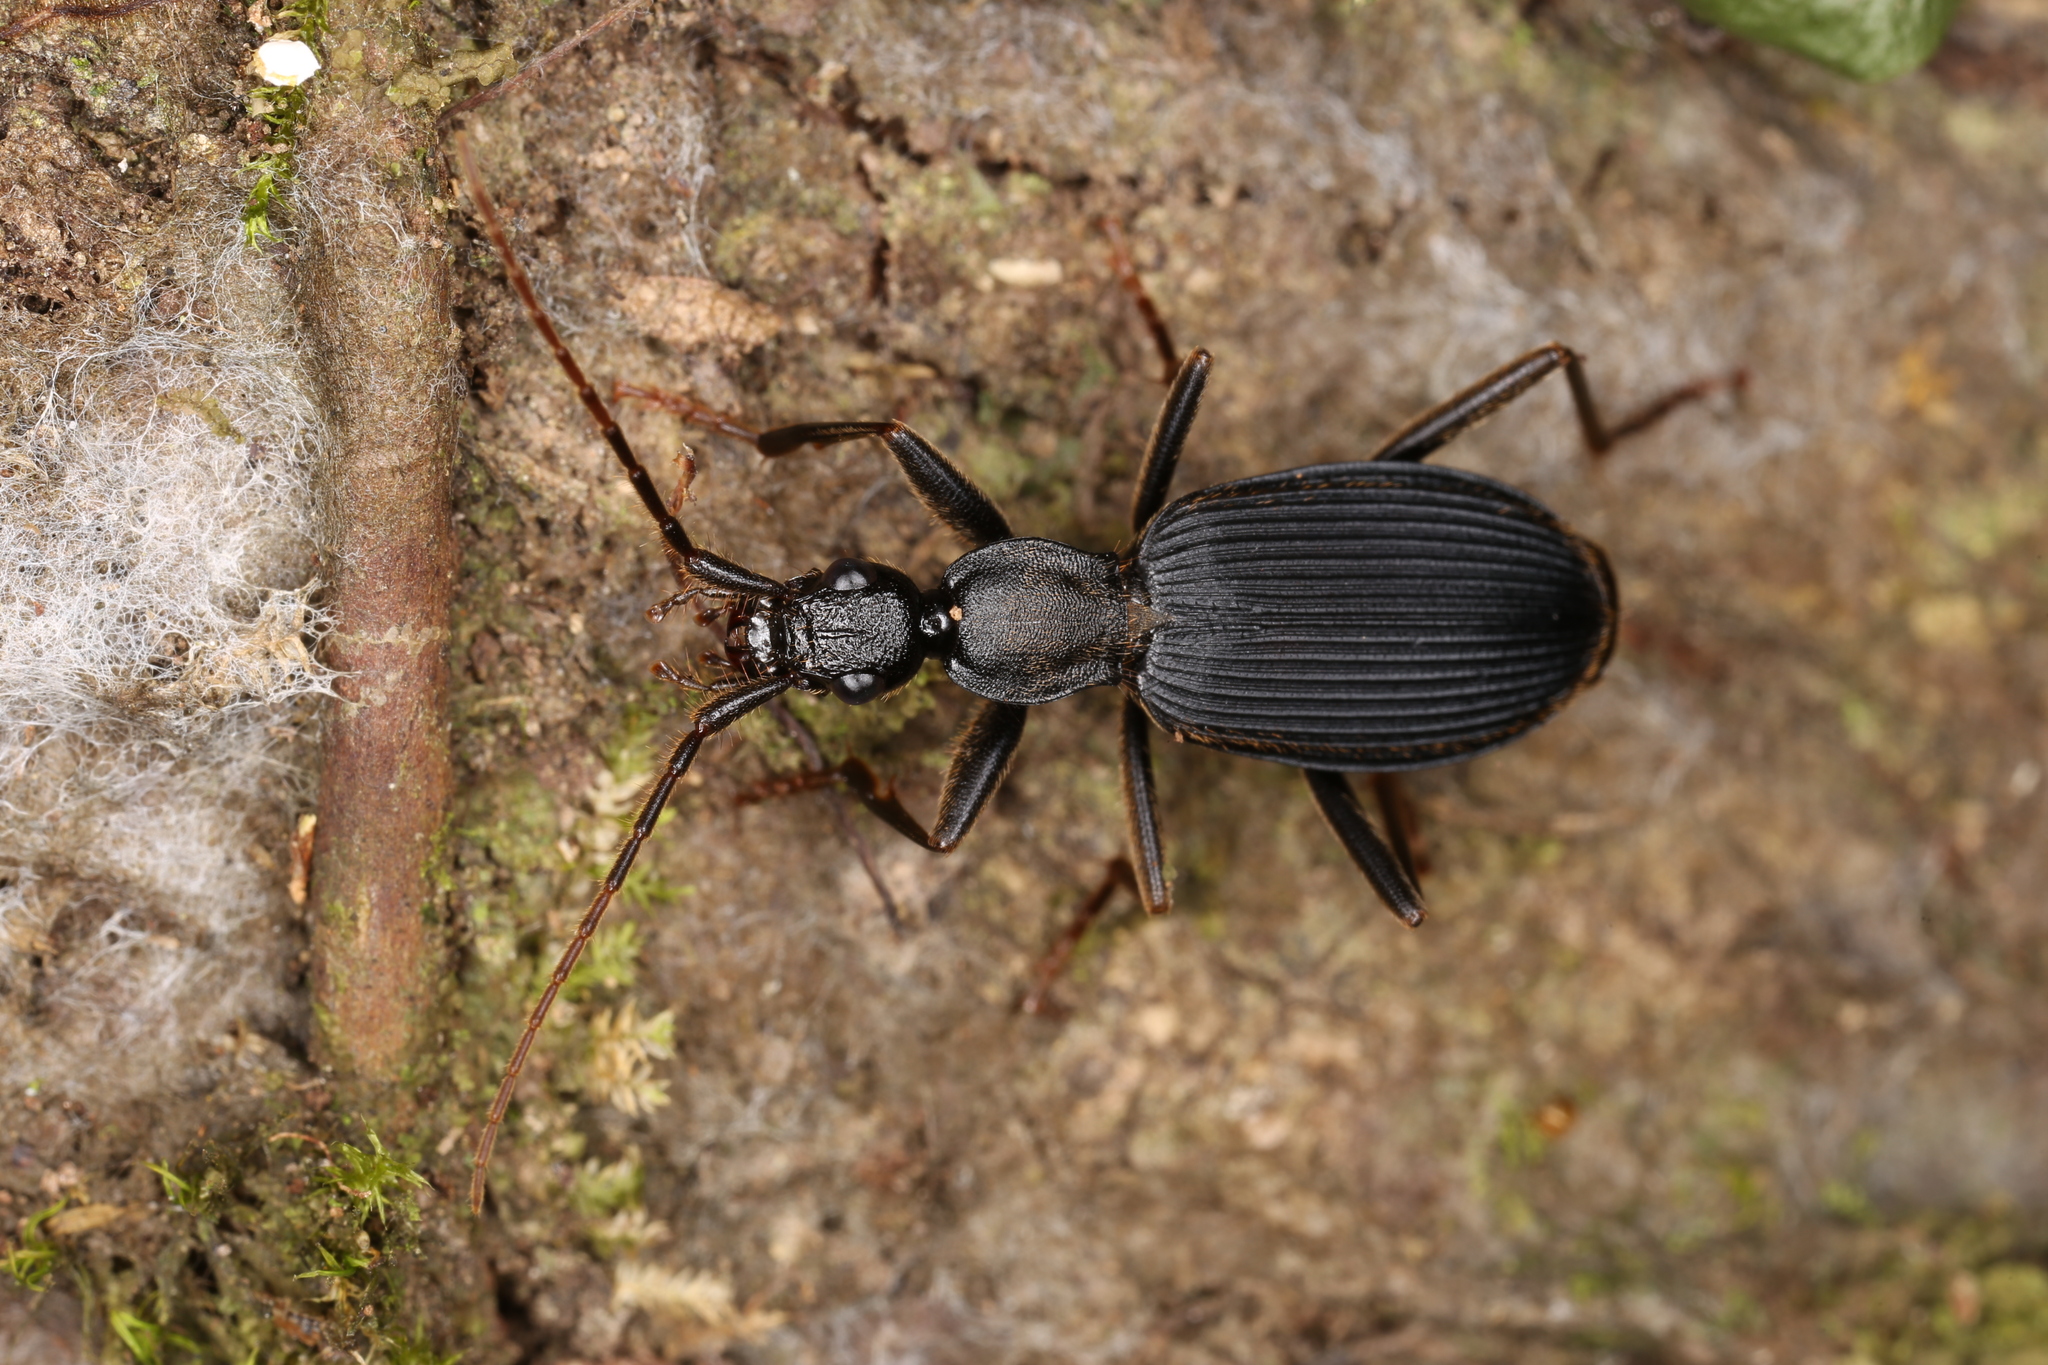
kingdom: Animalia
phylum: Arthropoda
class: Insecta
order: Coleoptera
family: Carabidae
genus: Galerita
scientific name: Galerita aequinoctialis
